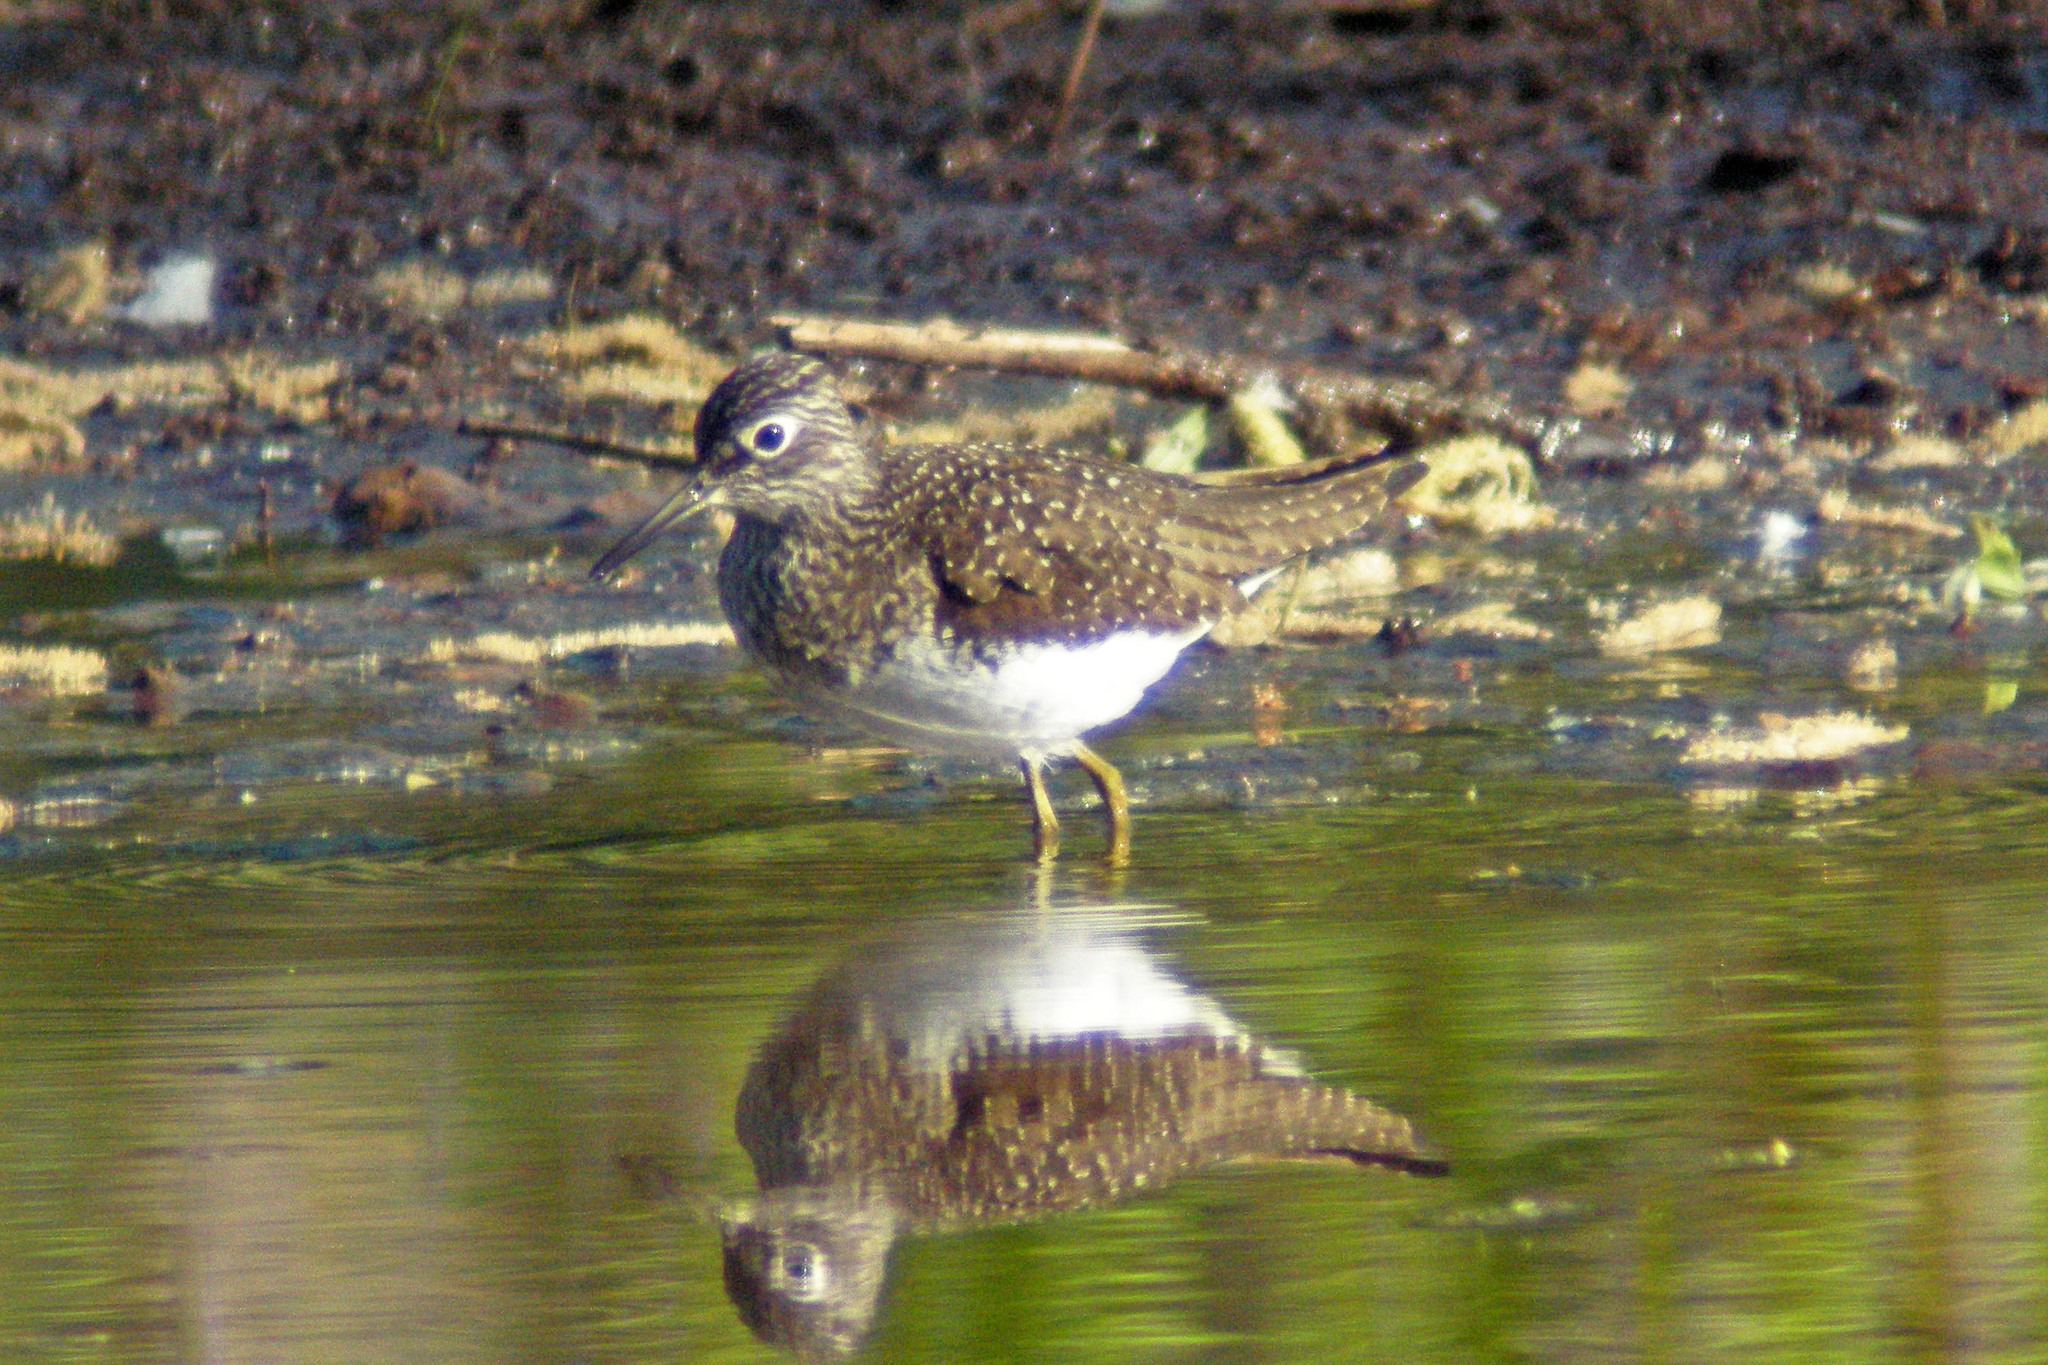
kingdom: Animalia
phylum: Chordata
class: Aves
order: Charadriiformes
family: Scolopacidae
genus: Tringa
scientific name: Tringa solitaria
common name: Solitary sandpiper
